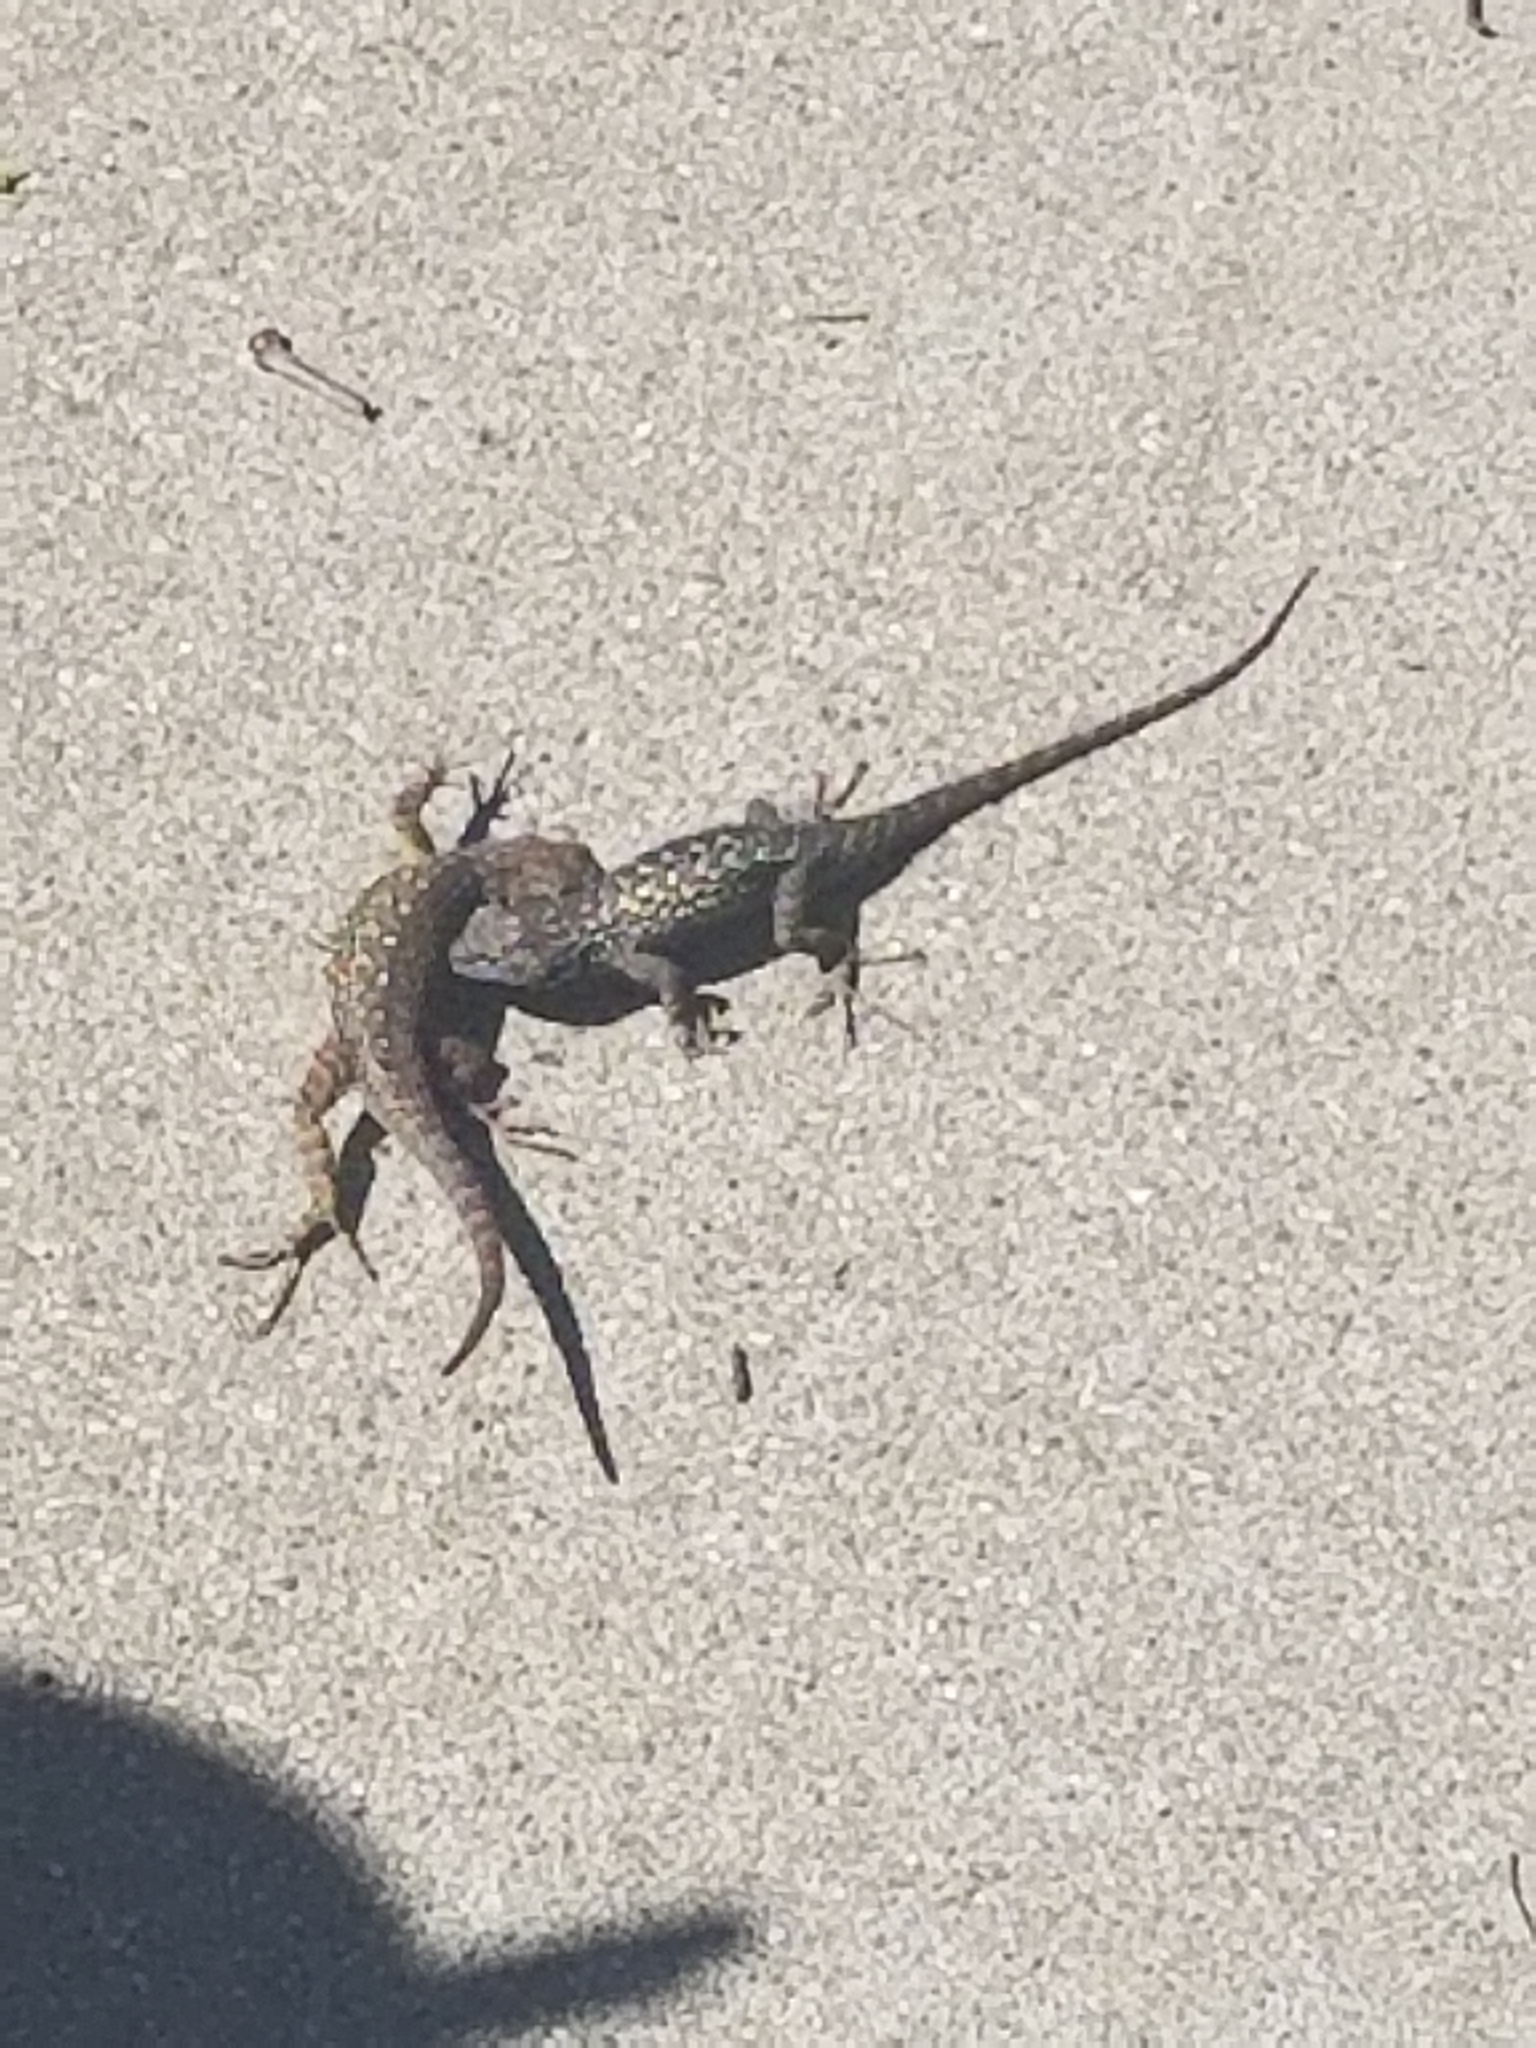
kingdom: Animalia
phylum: Chordata
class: Squamata
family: Phrynosomatidae
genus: Sceloporus
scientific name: Sceloporus occidentalis
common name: Western fence lizard
